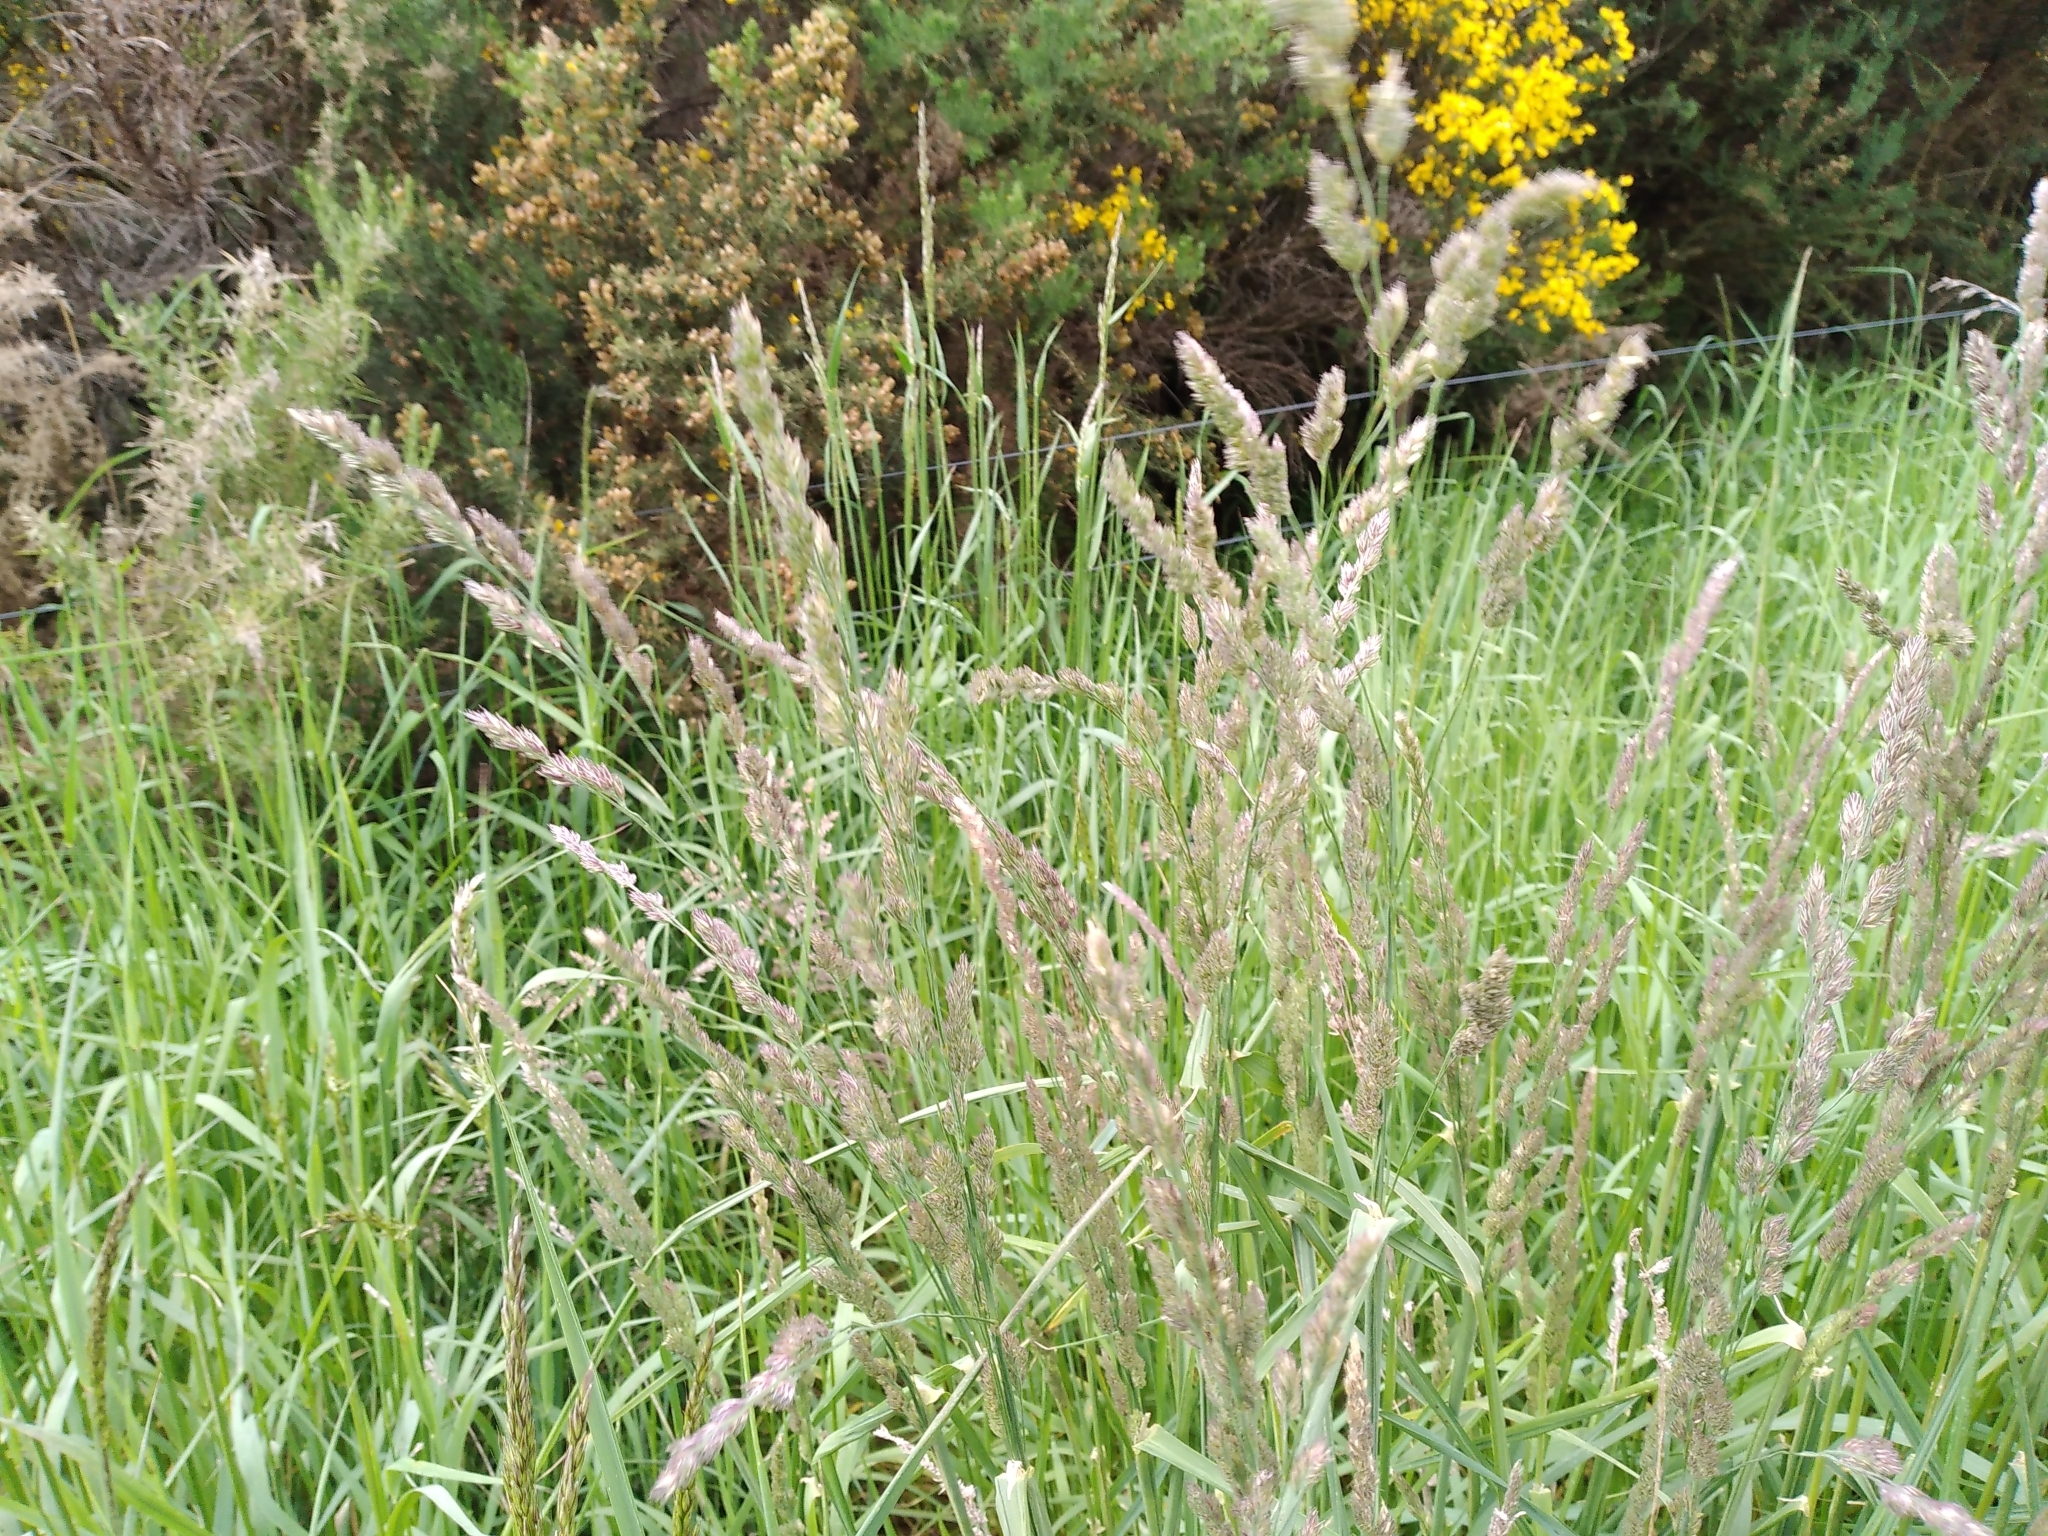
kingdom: Plantae
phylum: Tracheophyta
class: Liliopsida
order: Poales
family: Poaceae
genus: Dactylis
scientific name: Dactylis glomerata
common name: Orchardgrass
